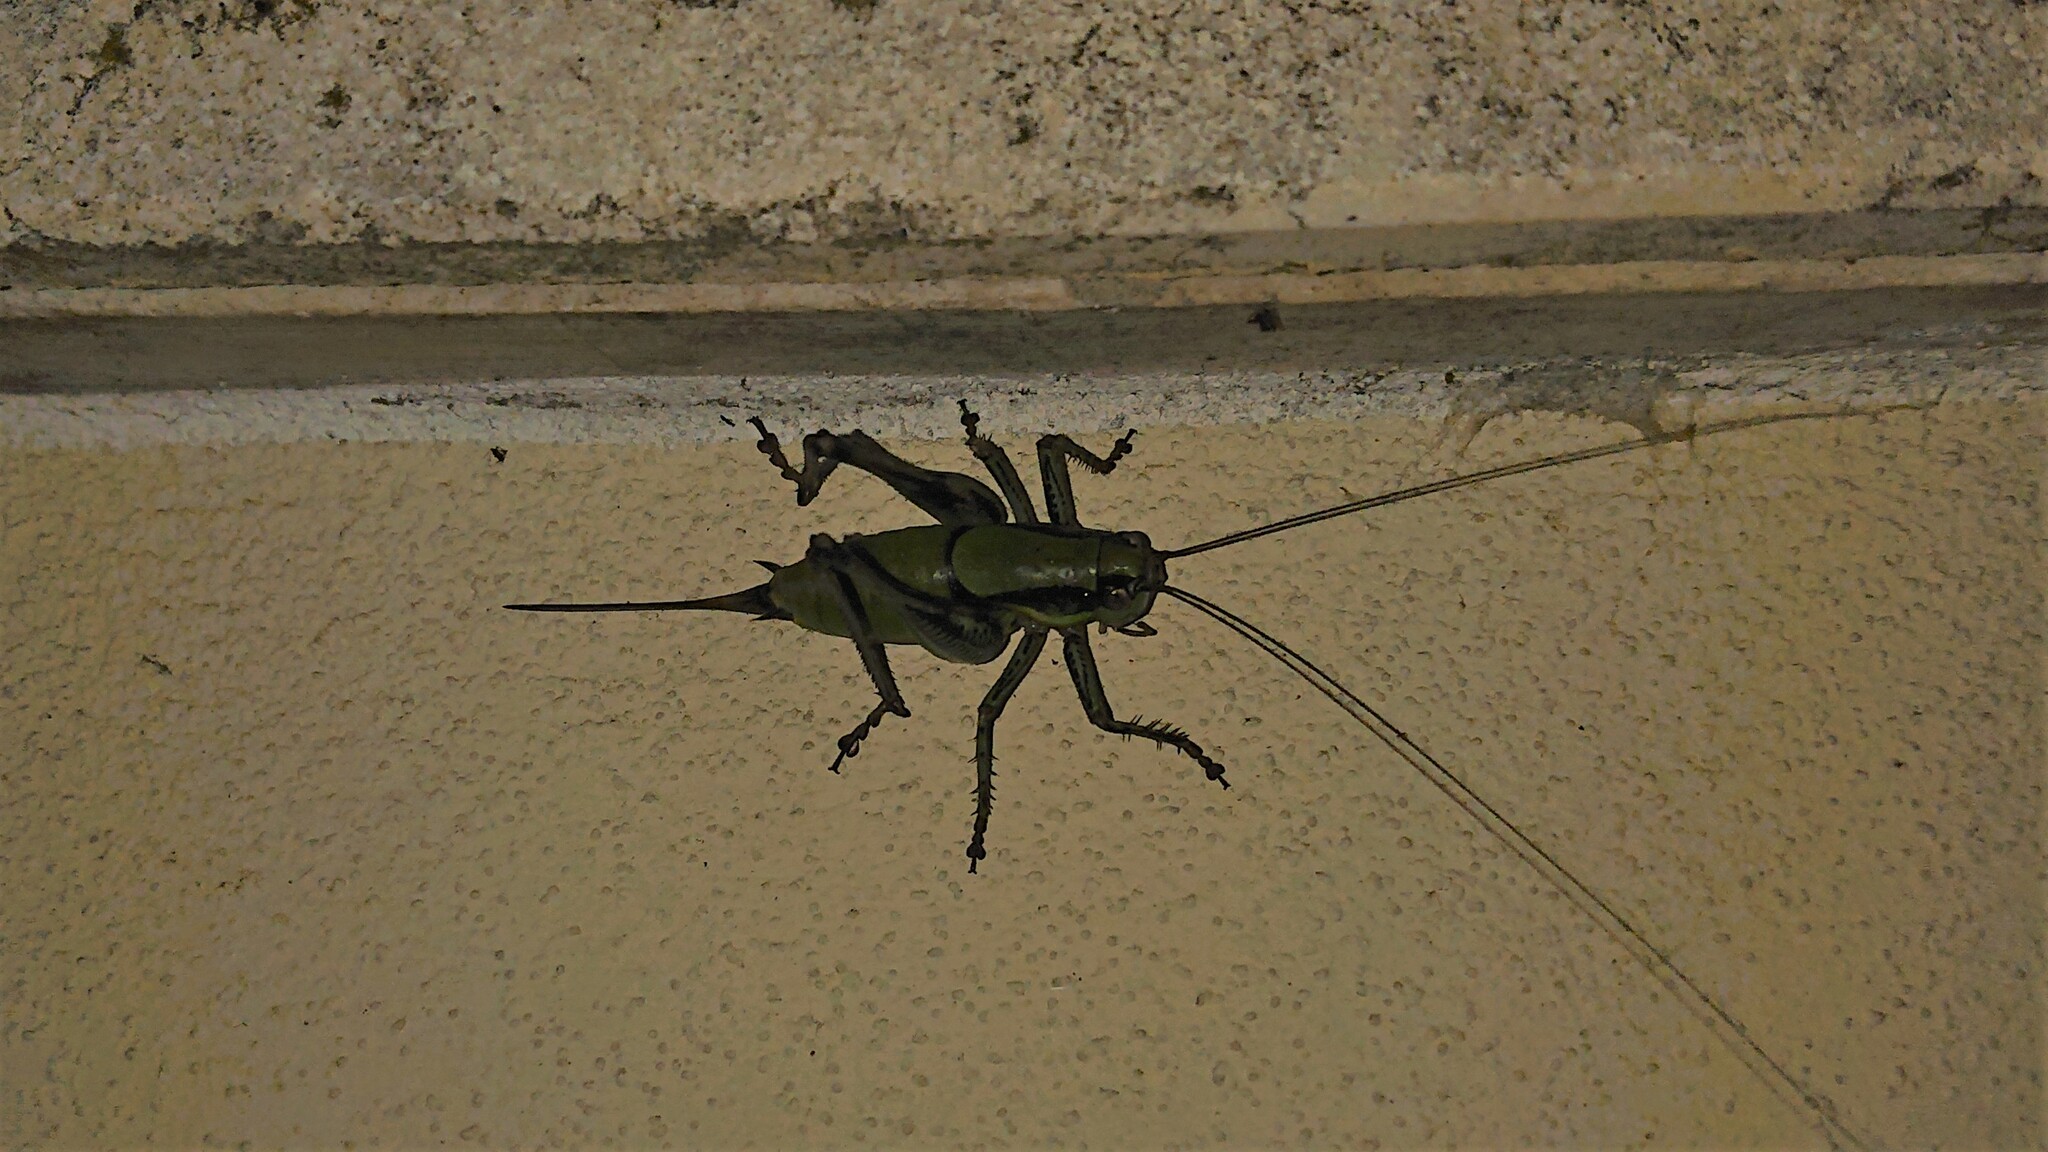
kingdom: Animalia
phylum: Arthropoda
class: Insecta
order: Orthoptera
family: Tettigoniidae
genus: Eupholidoptera
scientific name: Eupholidoptera schmidti
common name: Schmidt's marbled bush-cricket
